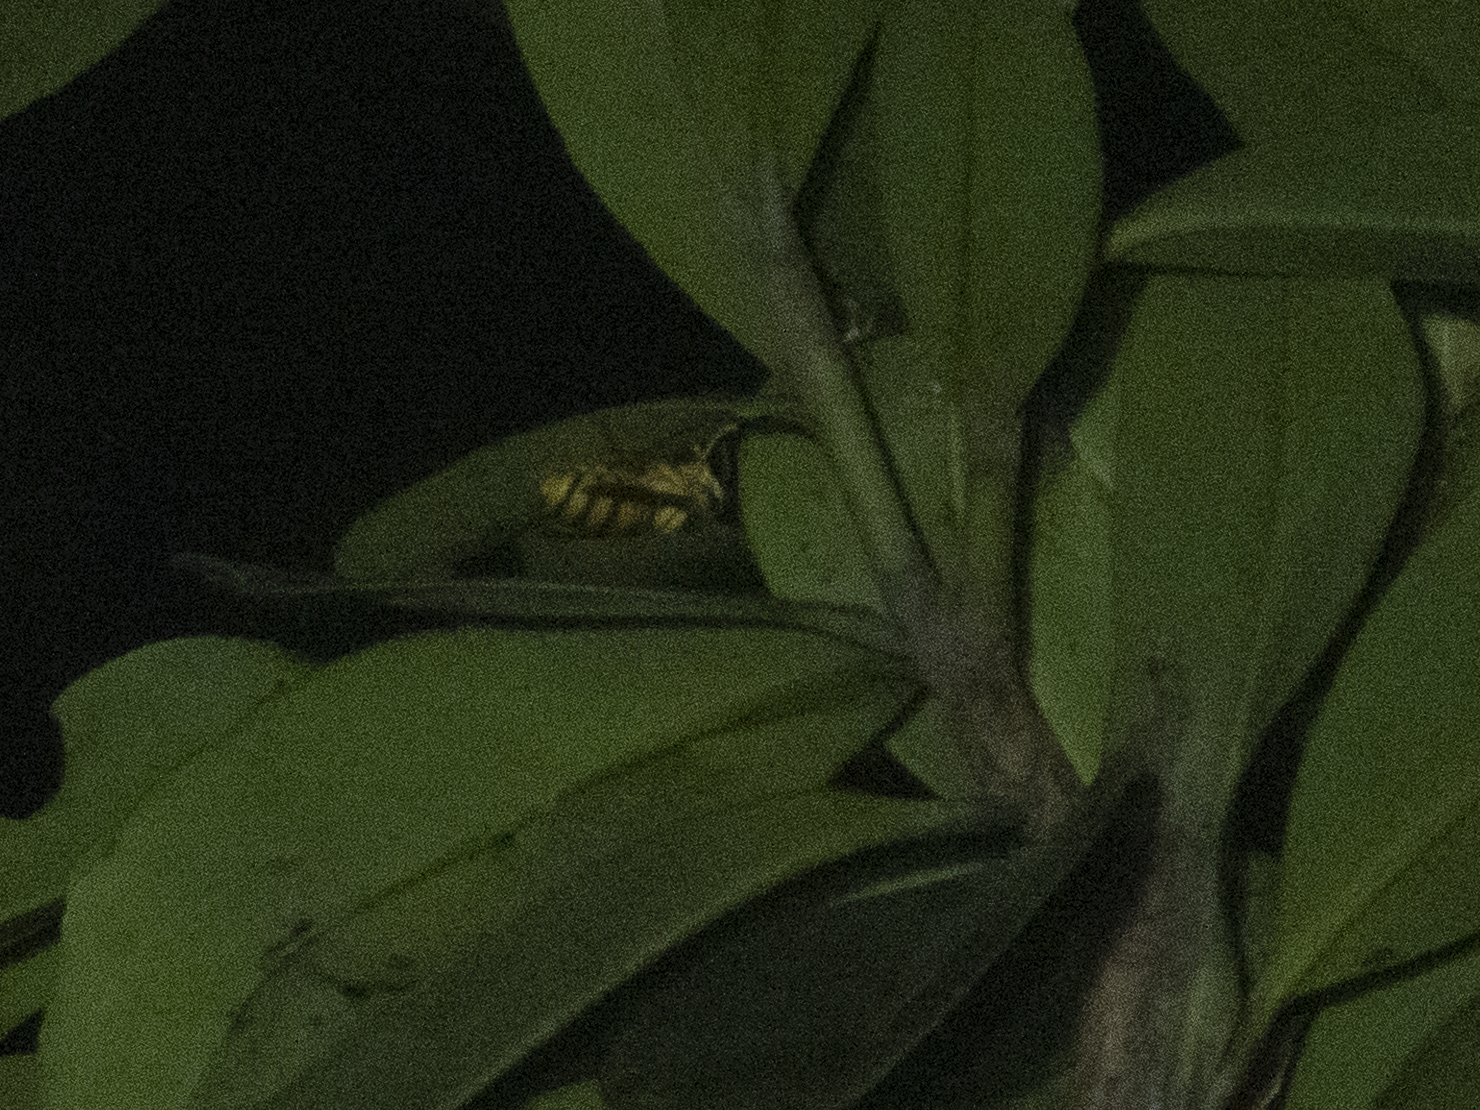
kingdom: Animalia
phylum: Arthropoda
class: Insecta
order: Hymenoptera
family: Vespidae
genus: Vespa
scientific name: Vespa bicolor
